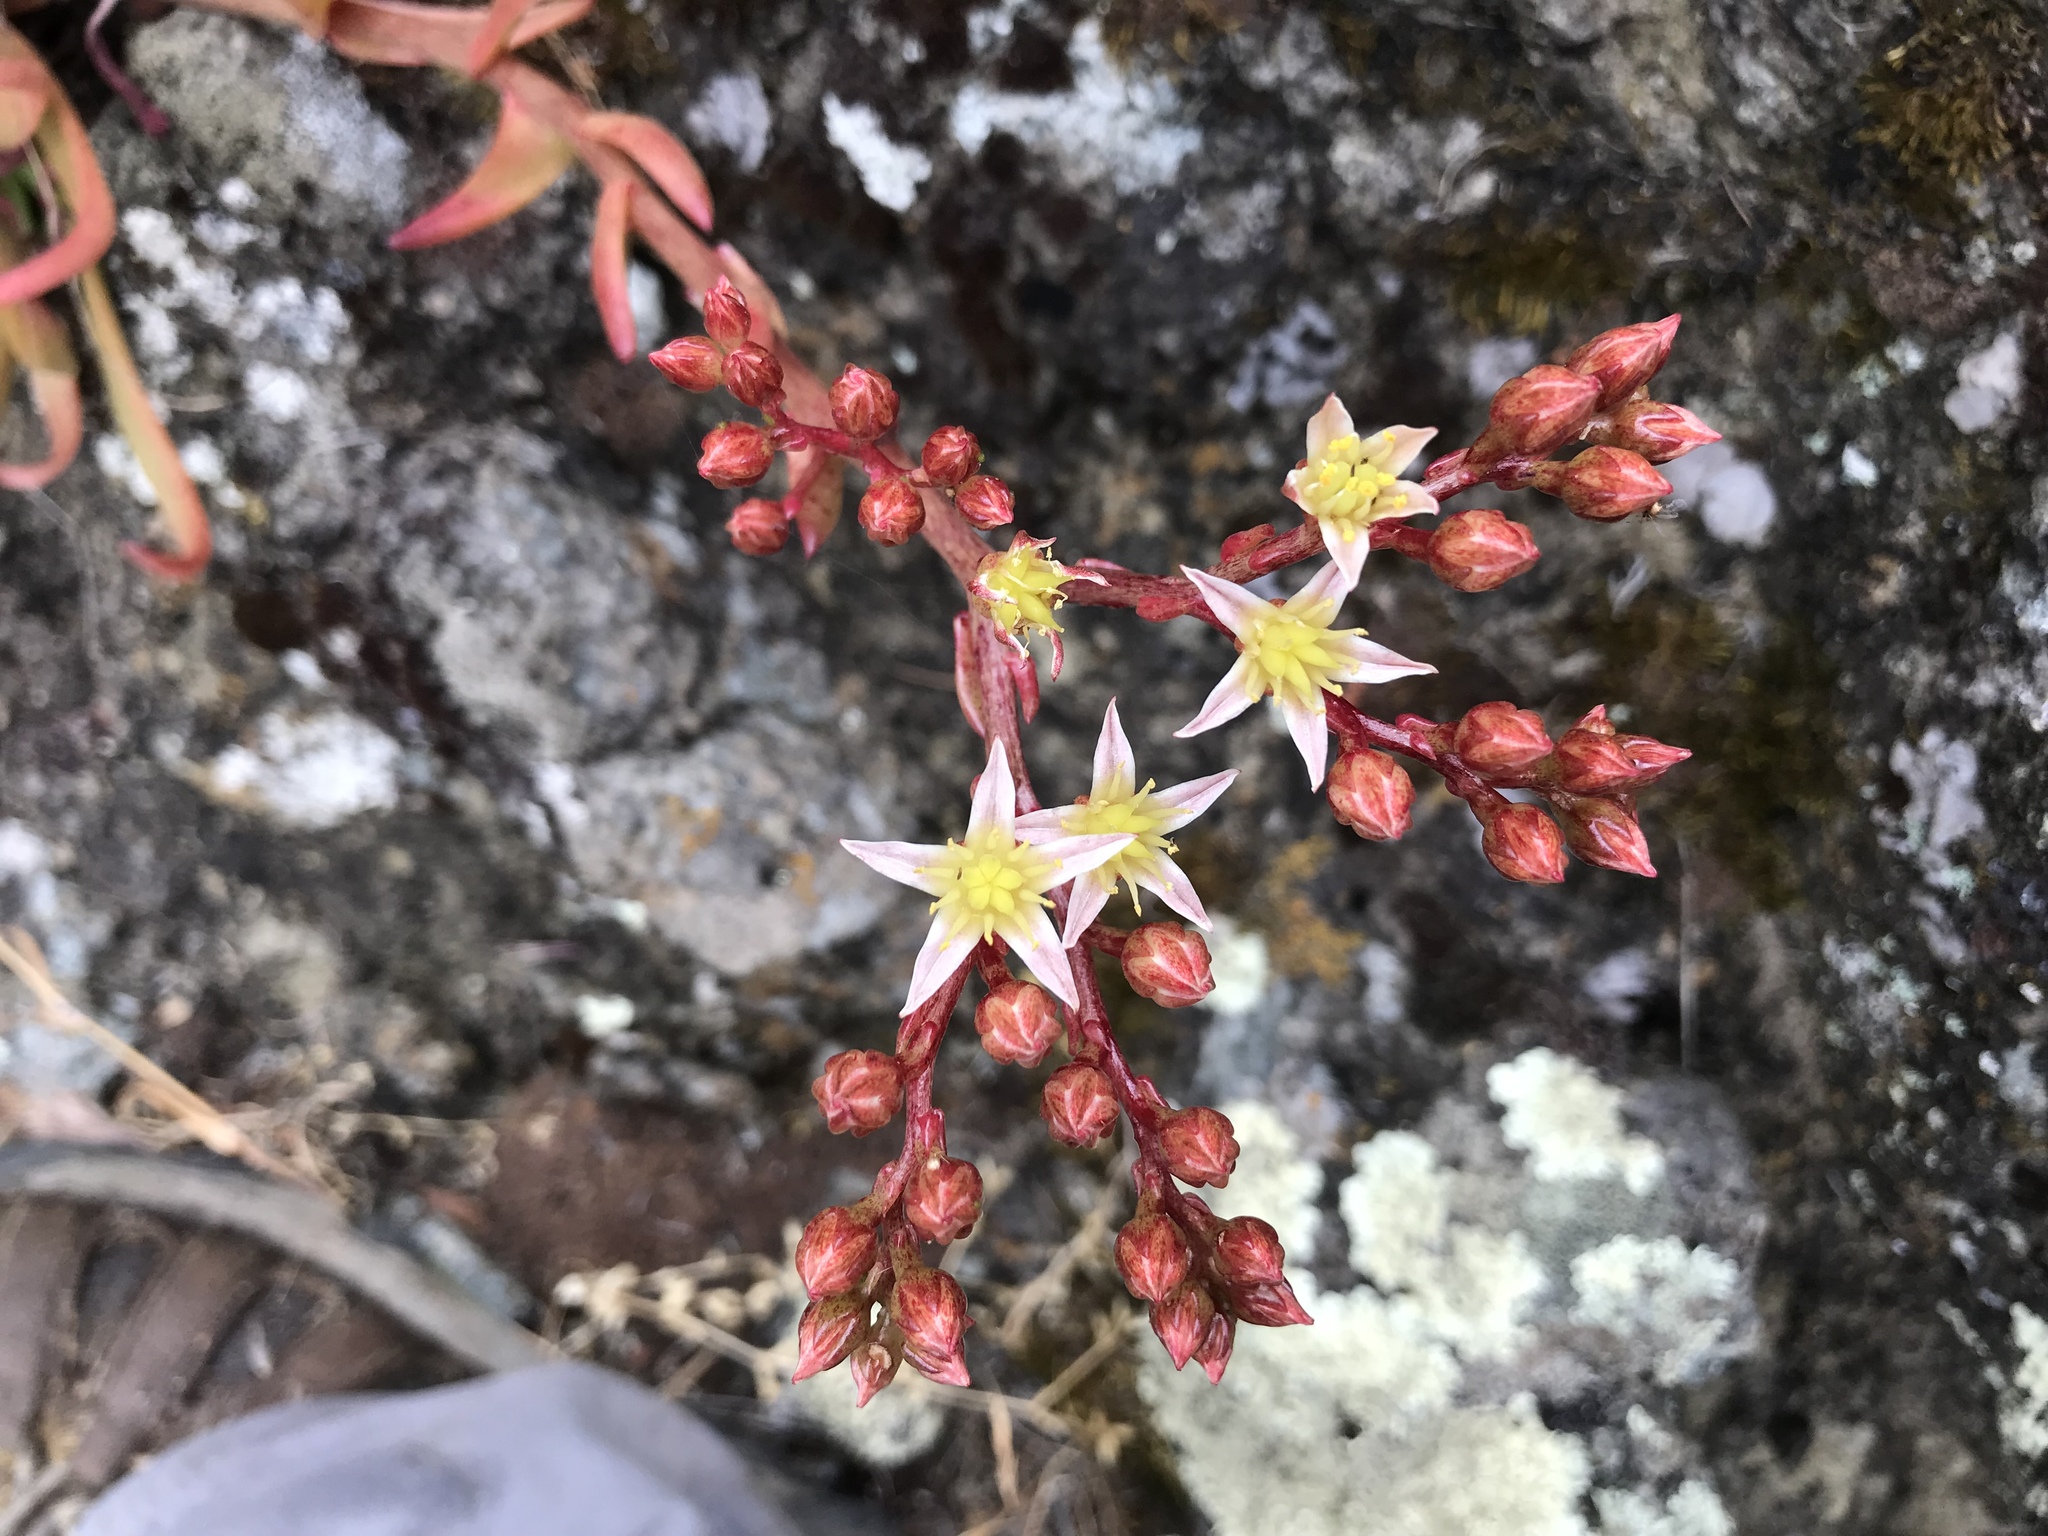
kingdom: Plantae
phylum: Tracheophyta
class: Magnoliopsida
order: Saxifragales
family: Crassulaceae
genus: Dudleya
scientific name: Dudleya virens
